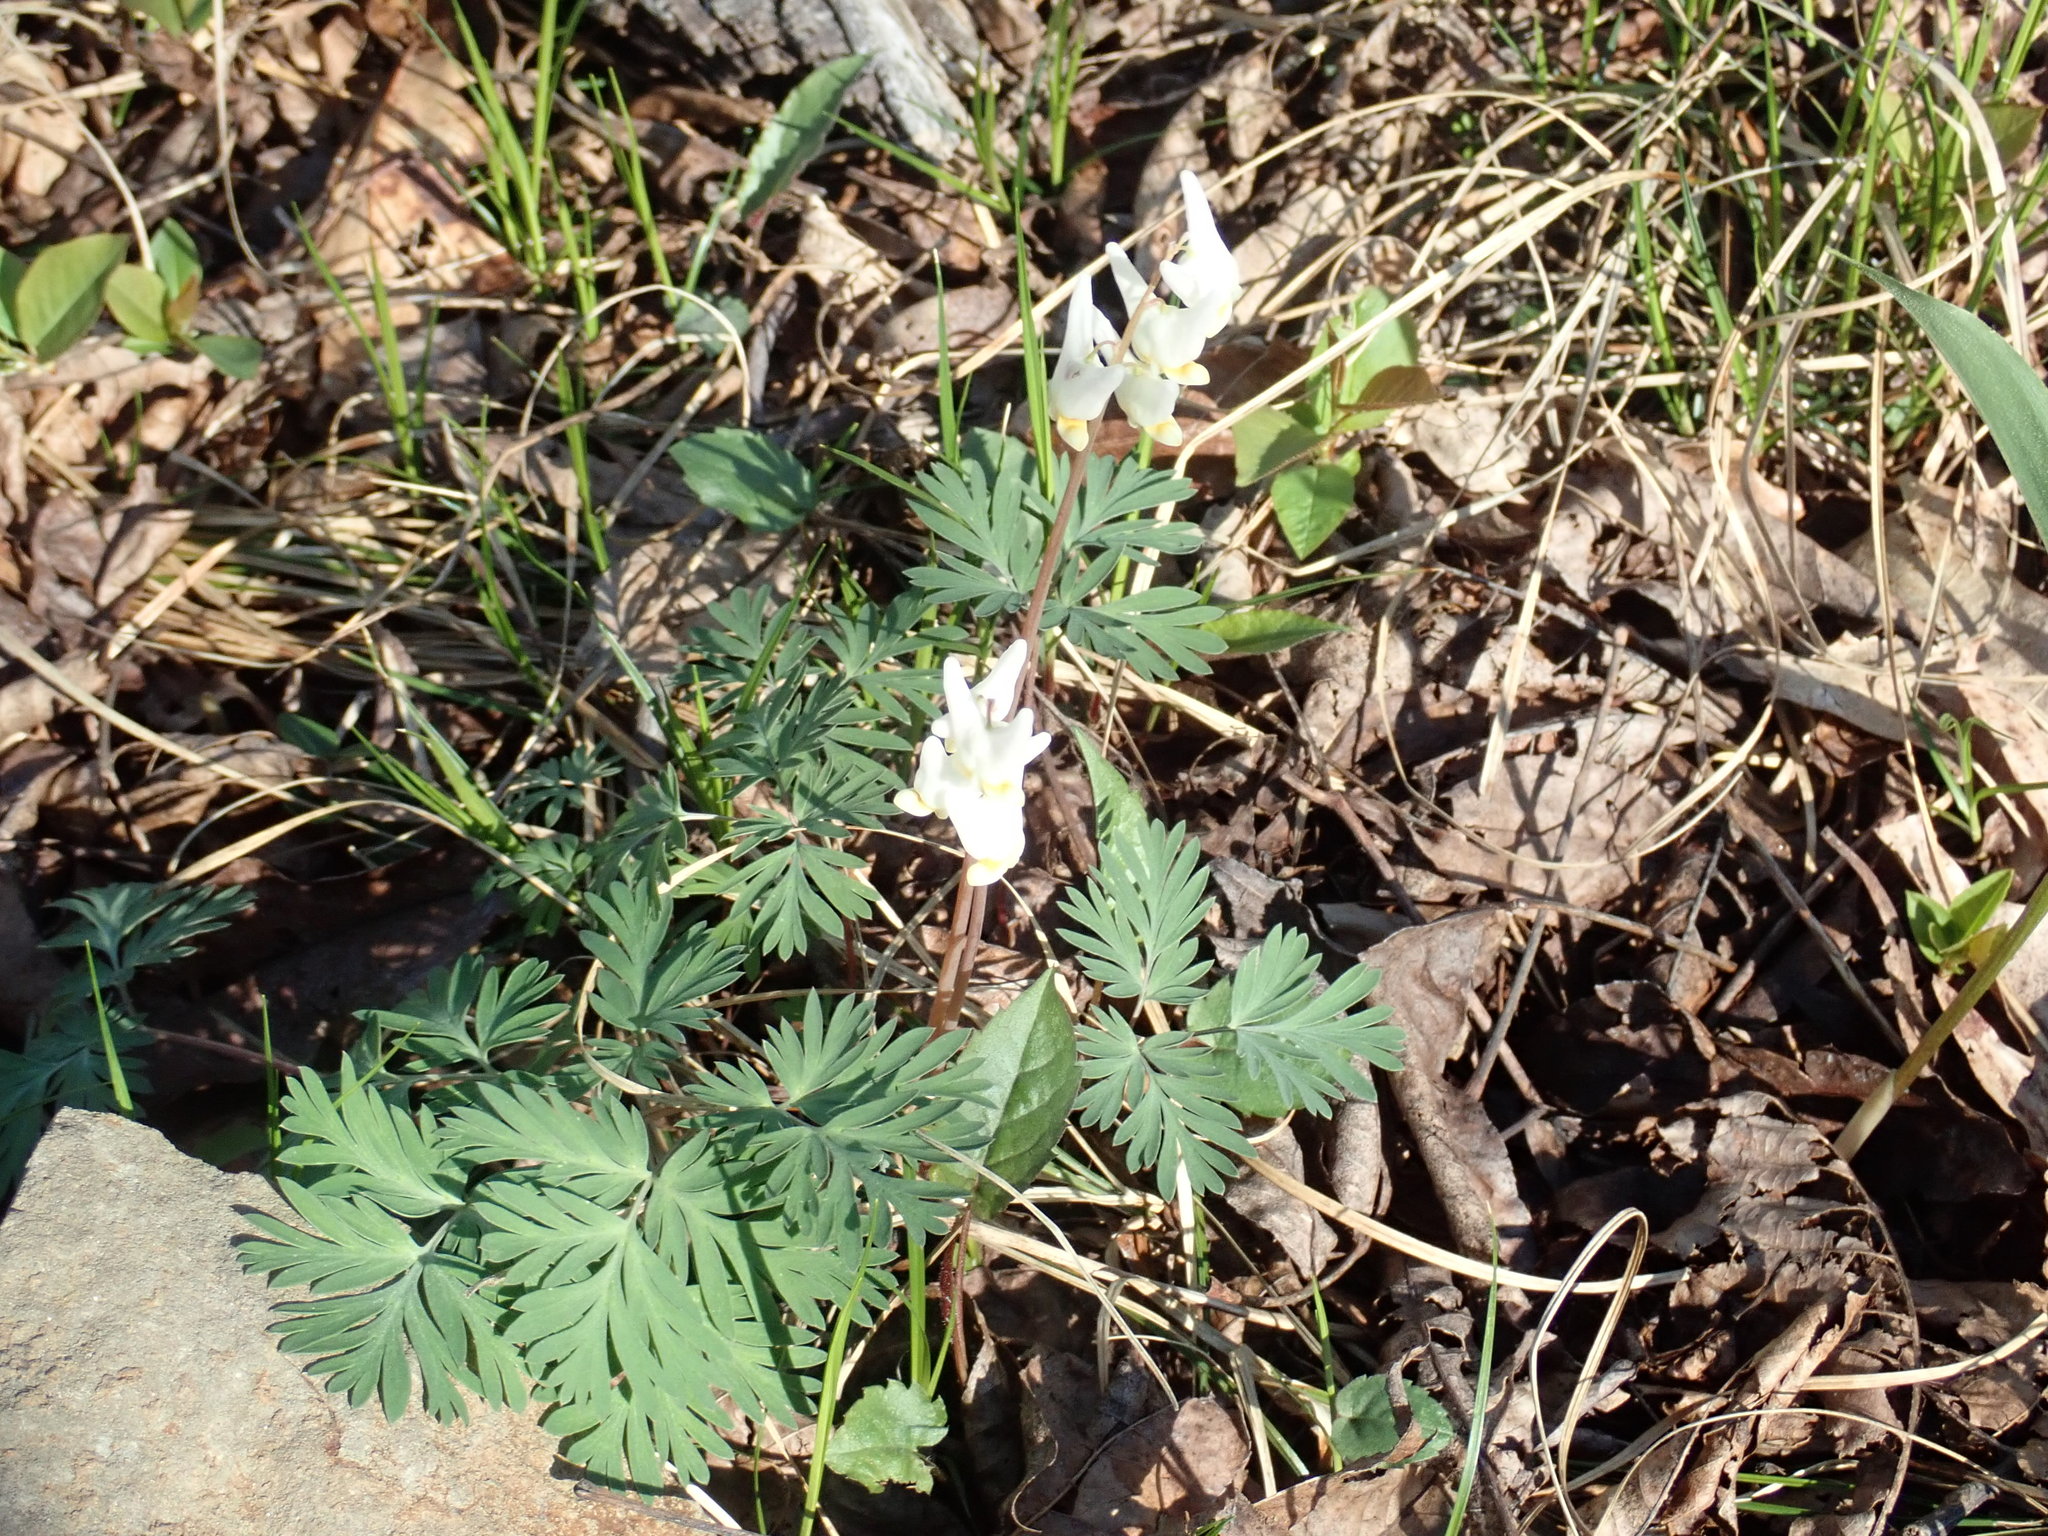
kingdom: Plantae
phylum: Tracheophyta
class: Magnoliopsida
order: Ranunculales
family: Papaveraceae
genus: Dicentra
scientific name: Dicentra cucullaria
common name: Dutchman's breeches
